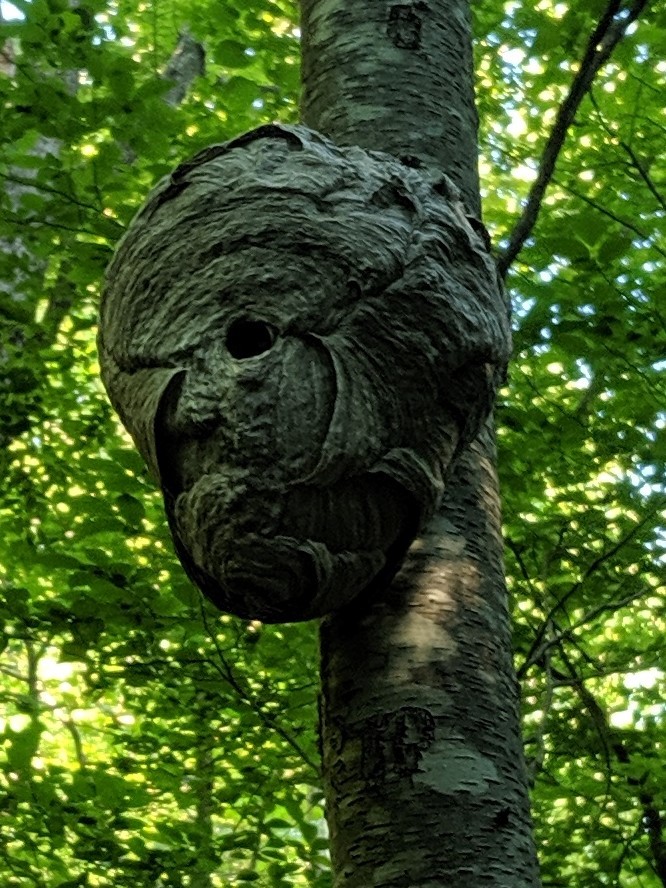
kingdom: Animalia
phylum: Arthropoda
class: Insecta
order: Hymenoptera
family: Vespidae
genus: Dolichovespula
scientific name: Dolichovespula maculata
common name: Bald-faced hornet
